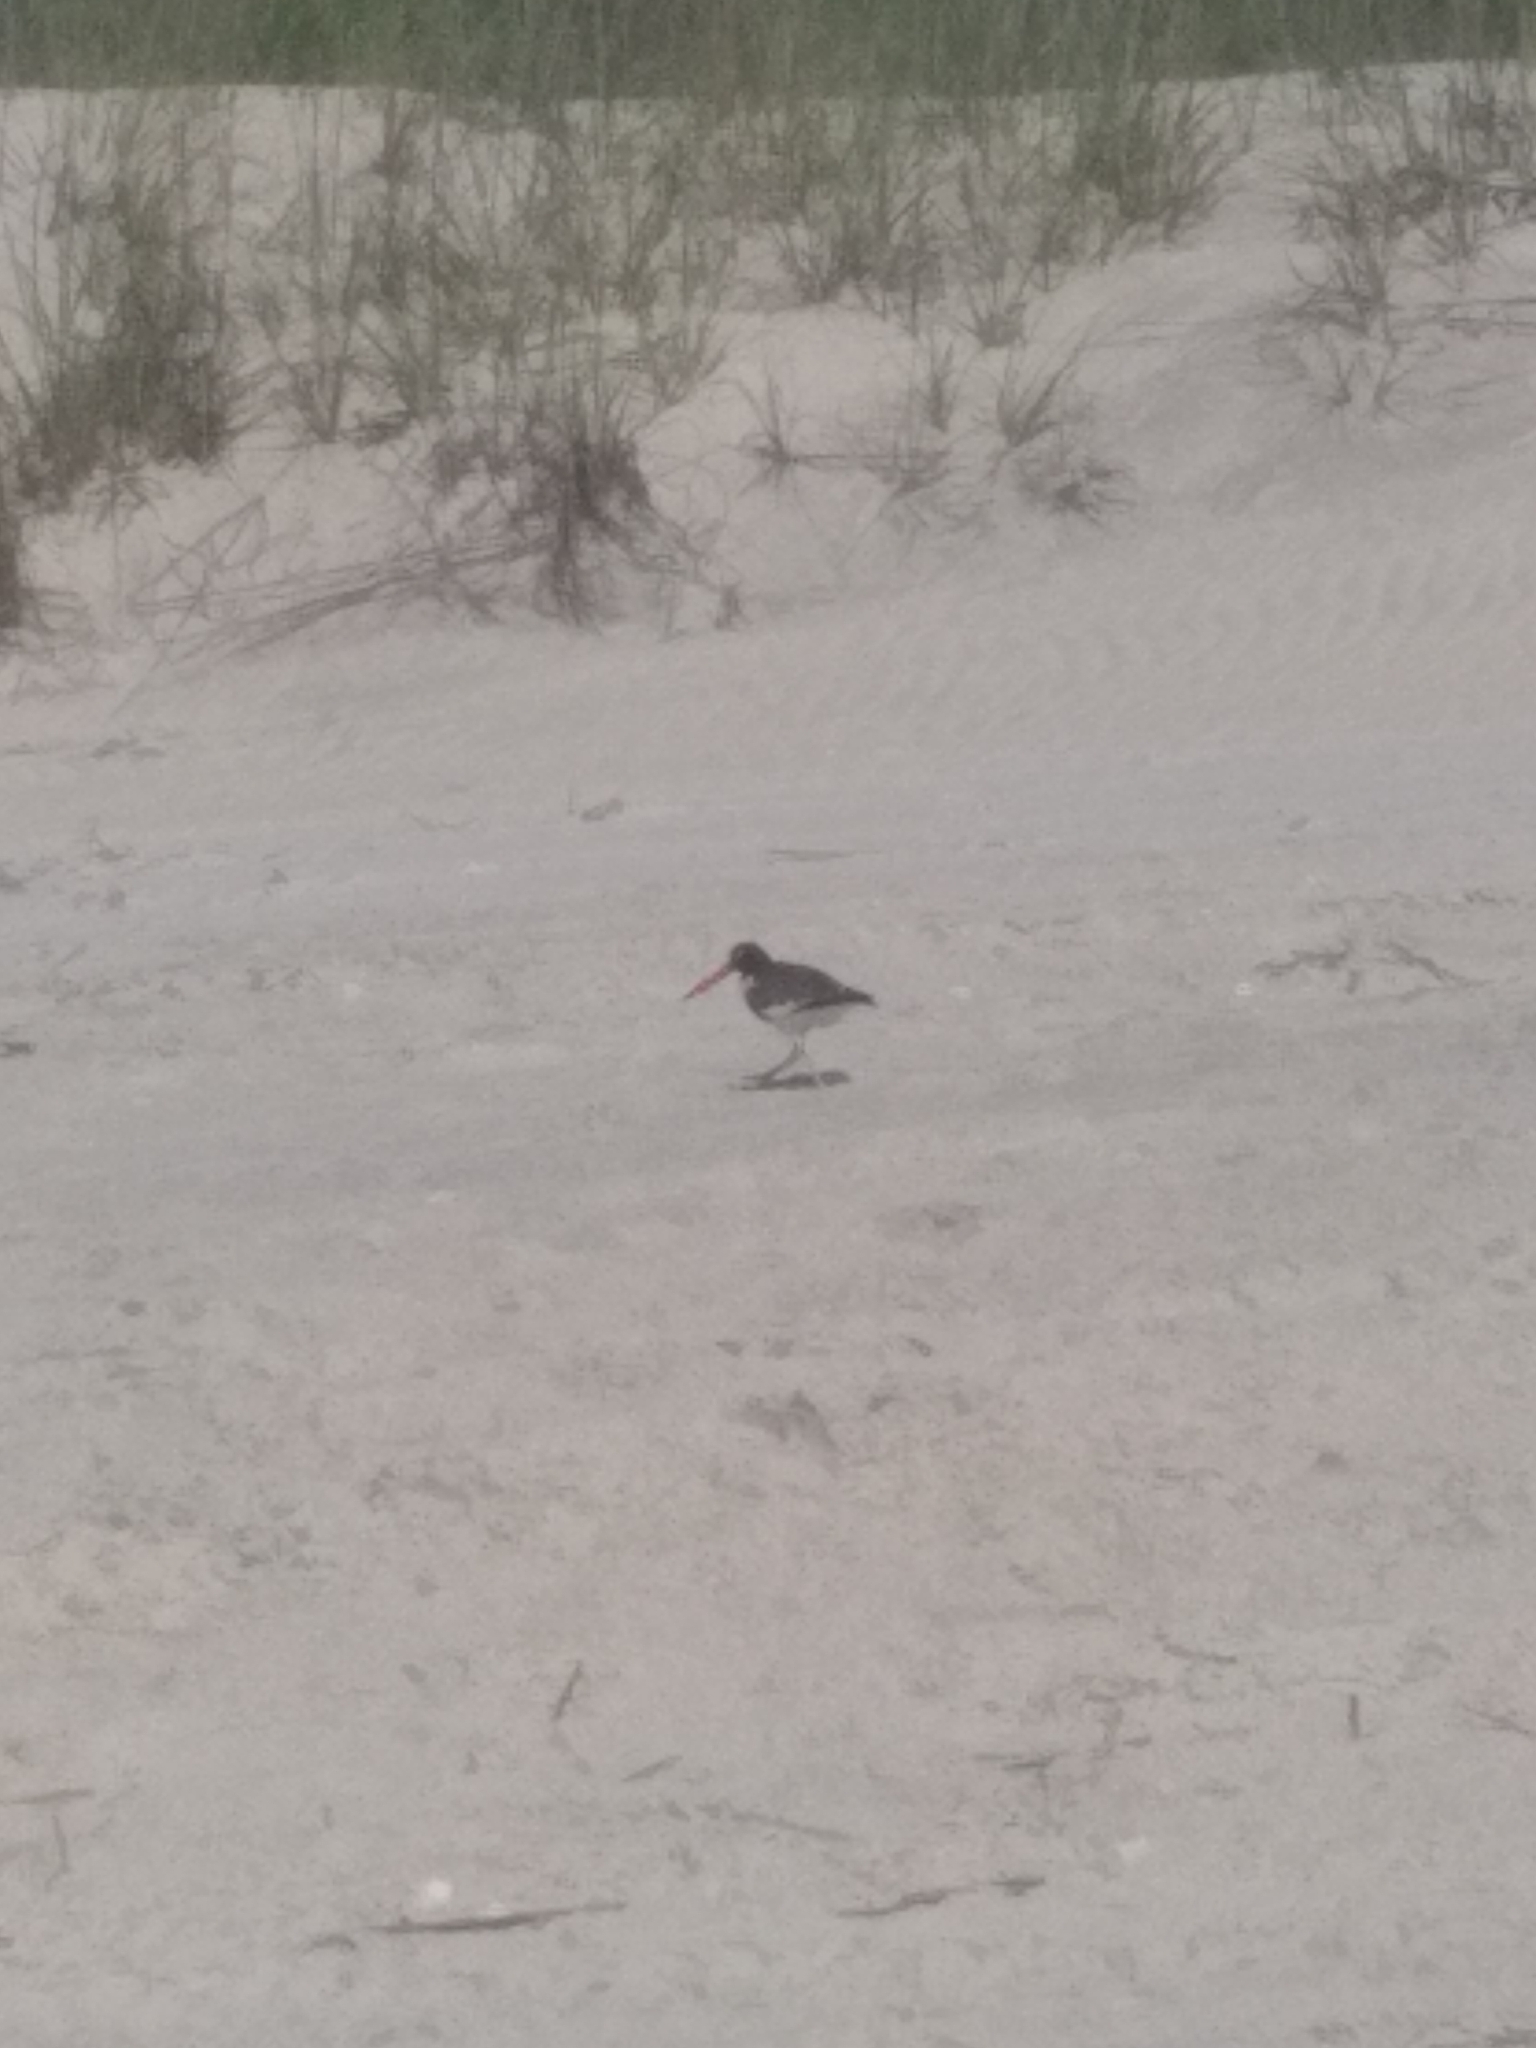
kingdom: Animalia
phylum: Chordata
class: Aves
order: Charadriiformes
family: Haematopodidae
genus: Haematopus
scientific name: Haematopus palliatus
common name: American oystercatcher
